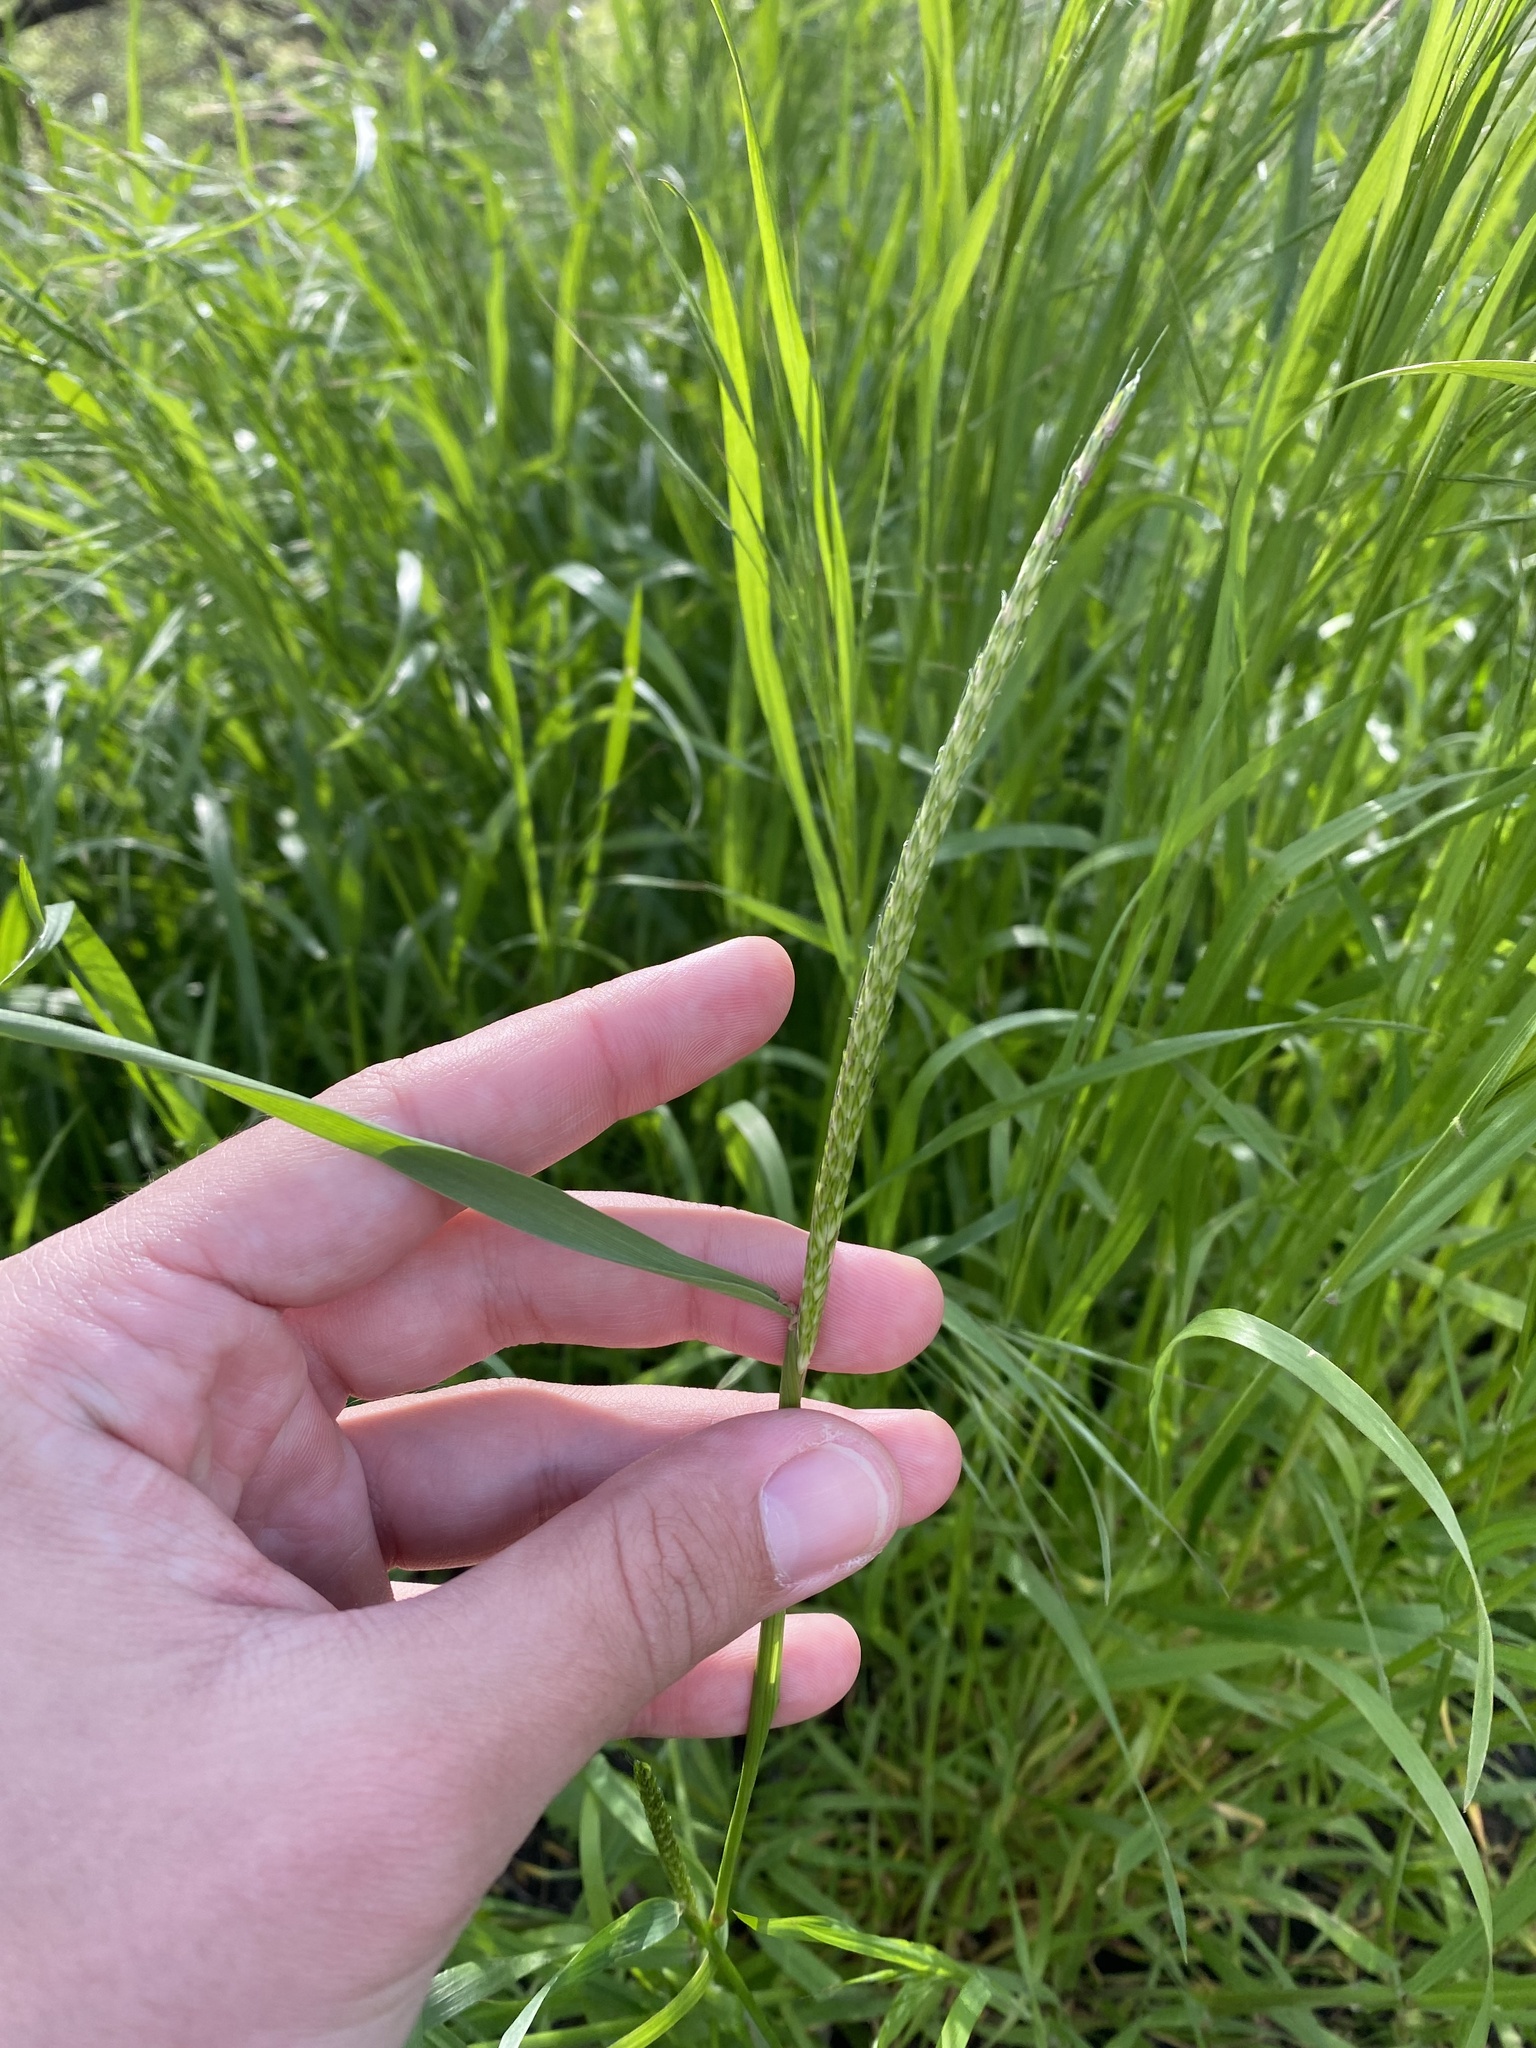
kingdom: Plantae
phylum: Tracheophyta
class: Liliopsida
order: Poales
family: Poaceae
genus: Alopecurus
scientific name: Alopecurus myosuroides
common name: Black-grass
